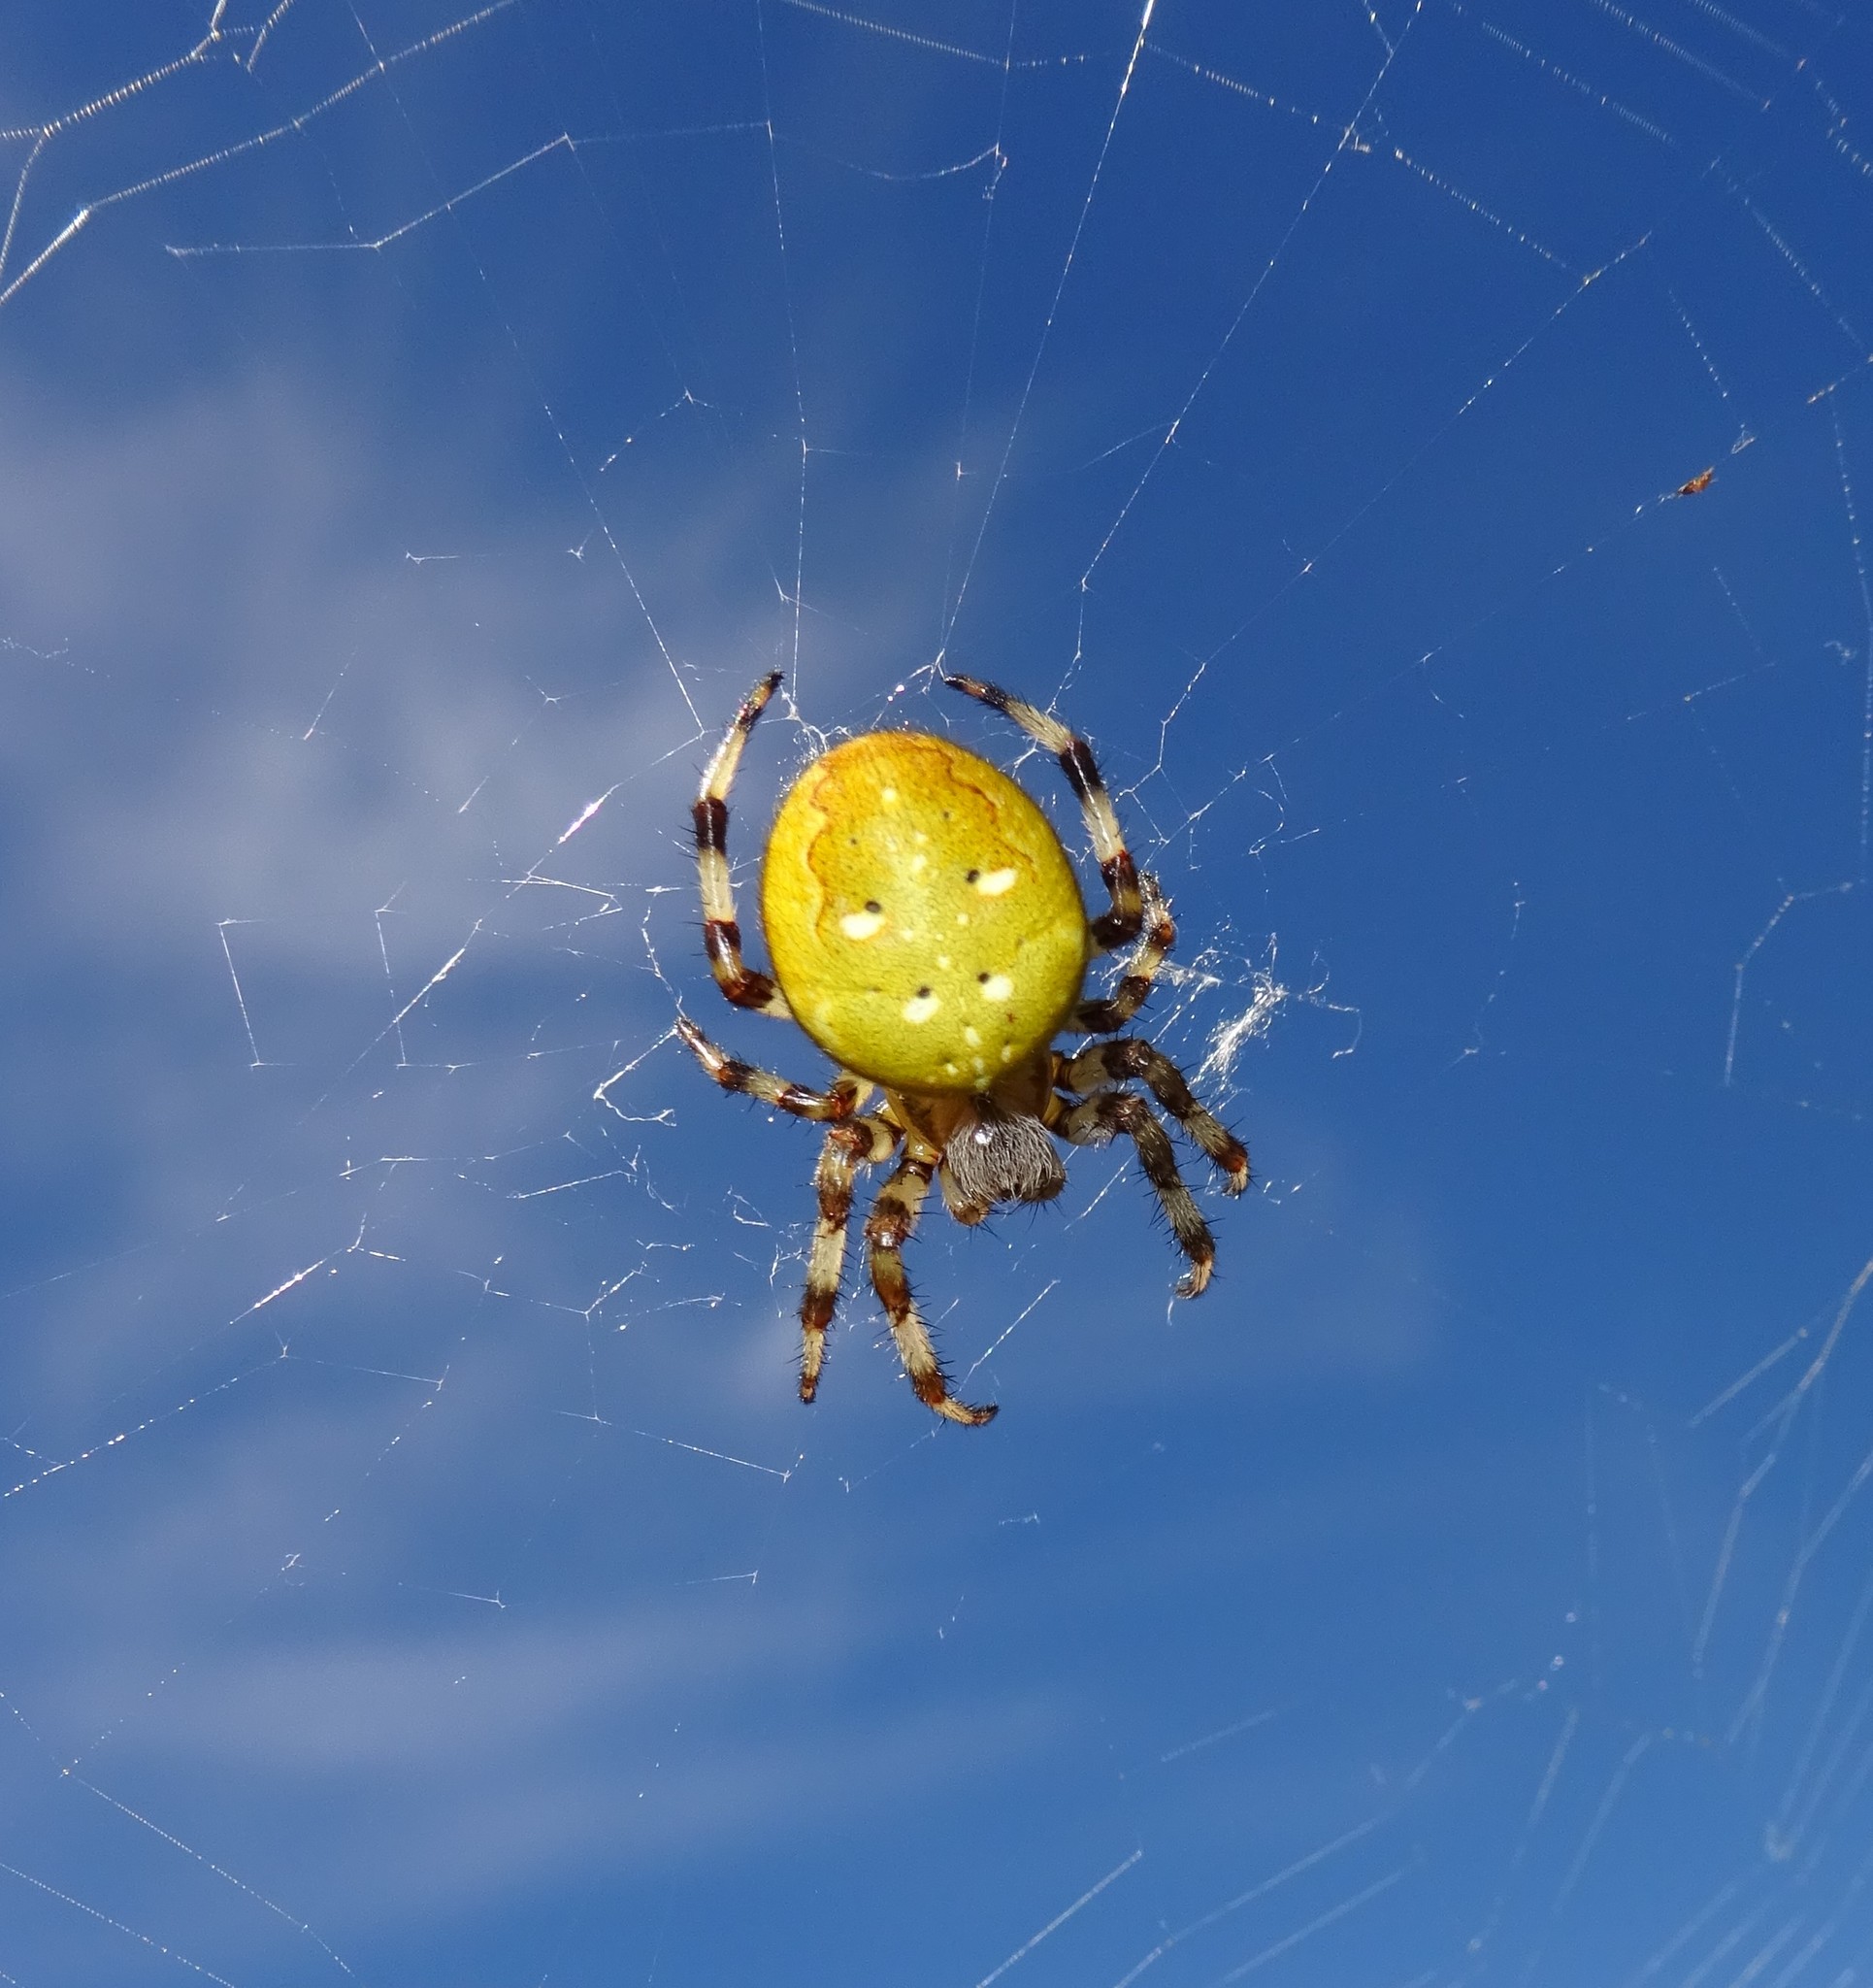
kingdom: Animalia
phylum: Arthropoda
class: Arachnida
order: Araneae
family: Araneidae
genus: Araneus
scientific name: Araneus quadratus
